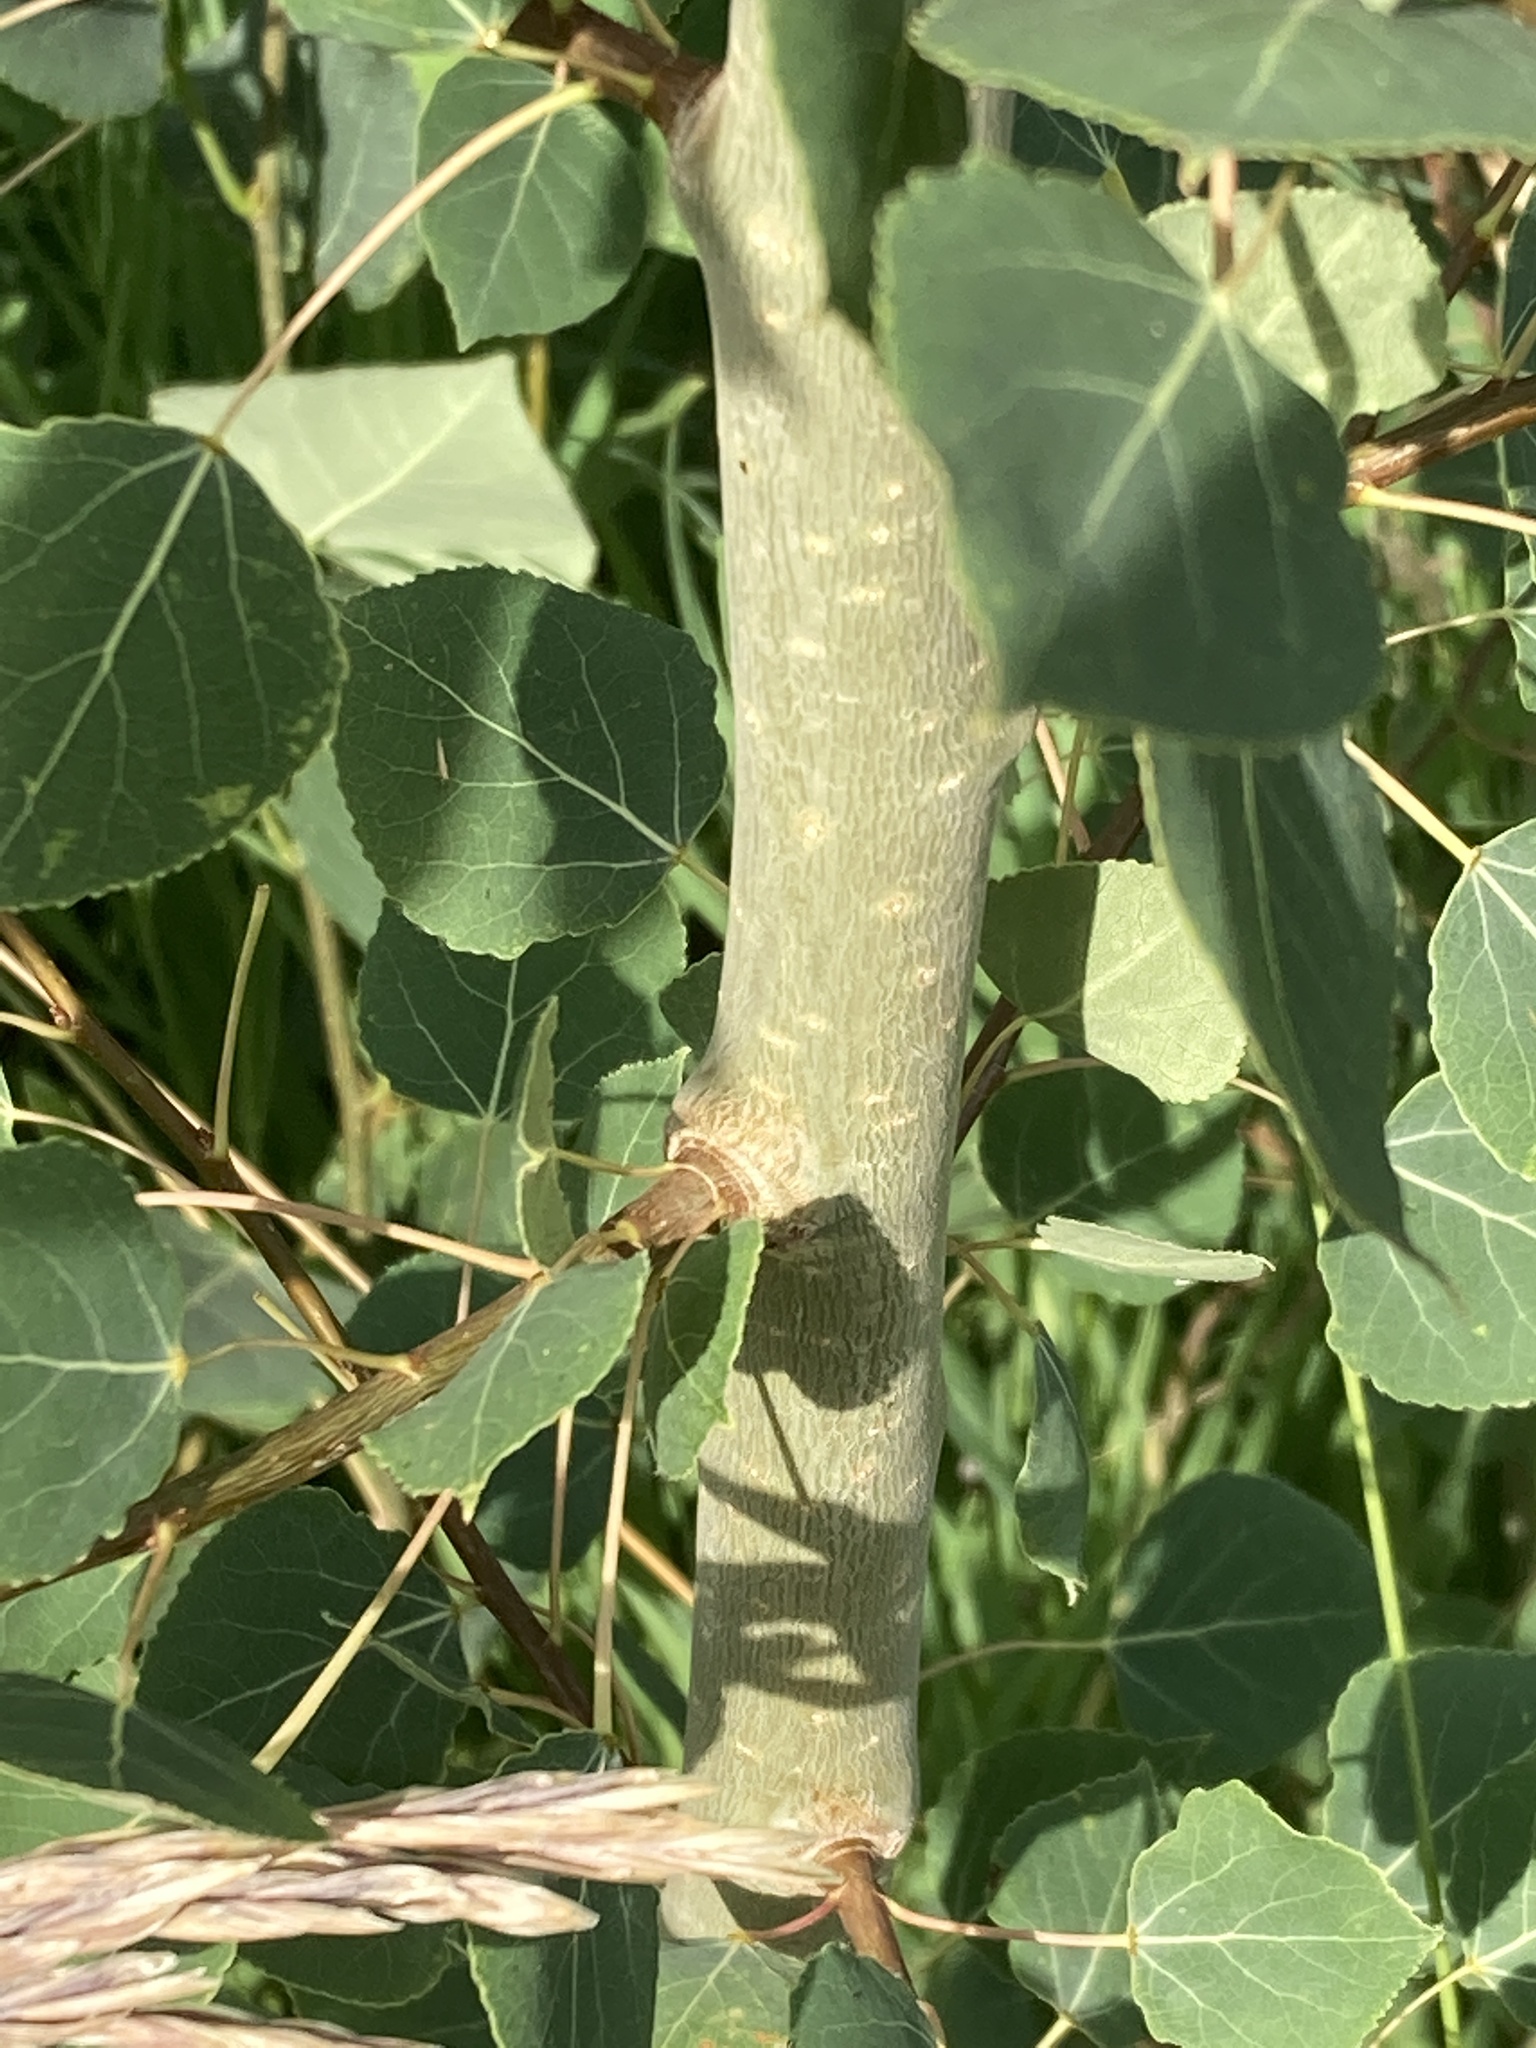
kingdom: Plantae
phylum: Tracheophyta
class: Magnoliopsida
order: Malpighiales
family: Salicaceae
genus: Populus
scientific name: Populus tremuloides
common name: Quaking aspen
